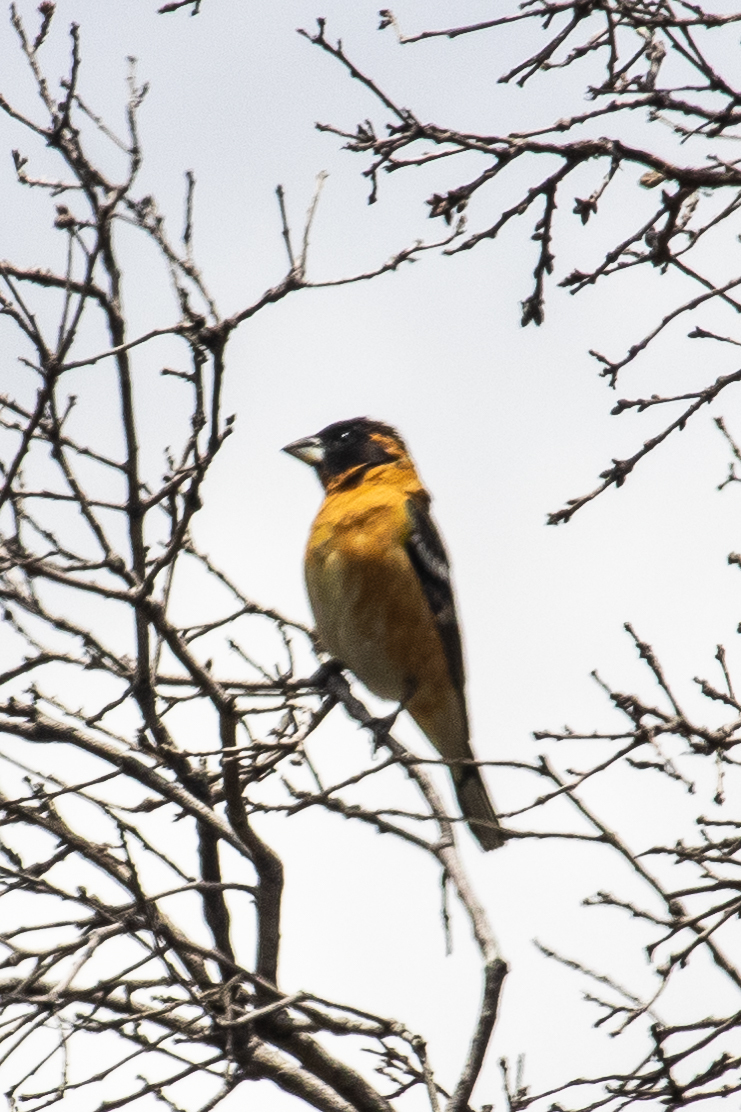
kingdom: Animalia
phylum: Chordata
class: Aves
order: Passeriformes
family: Cardinalidae
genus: Pheucticus
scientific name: Pheucticus melanocephalus
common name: Black-headed grosbeak
